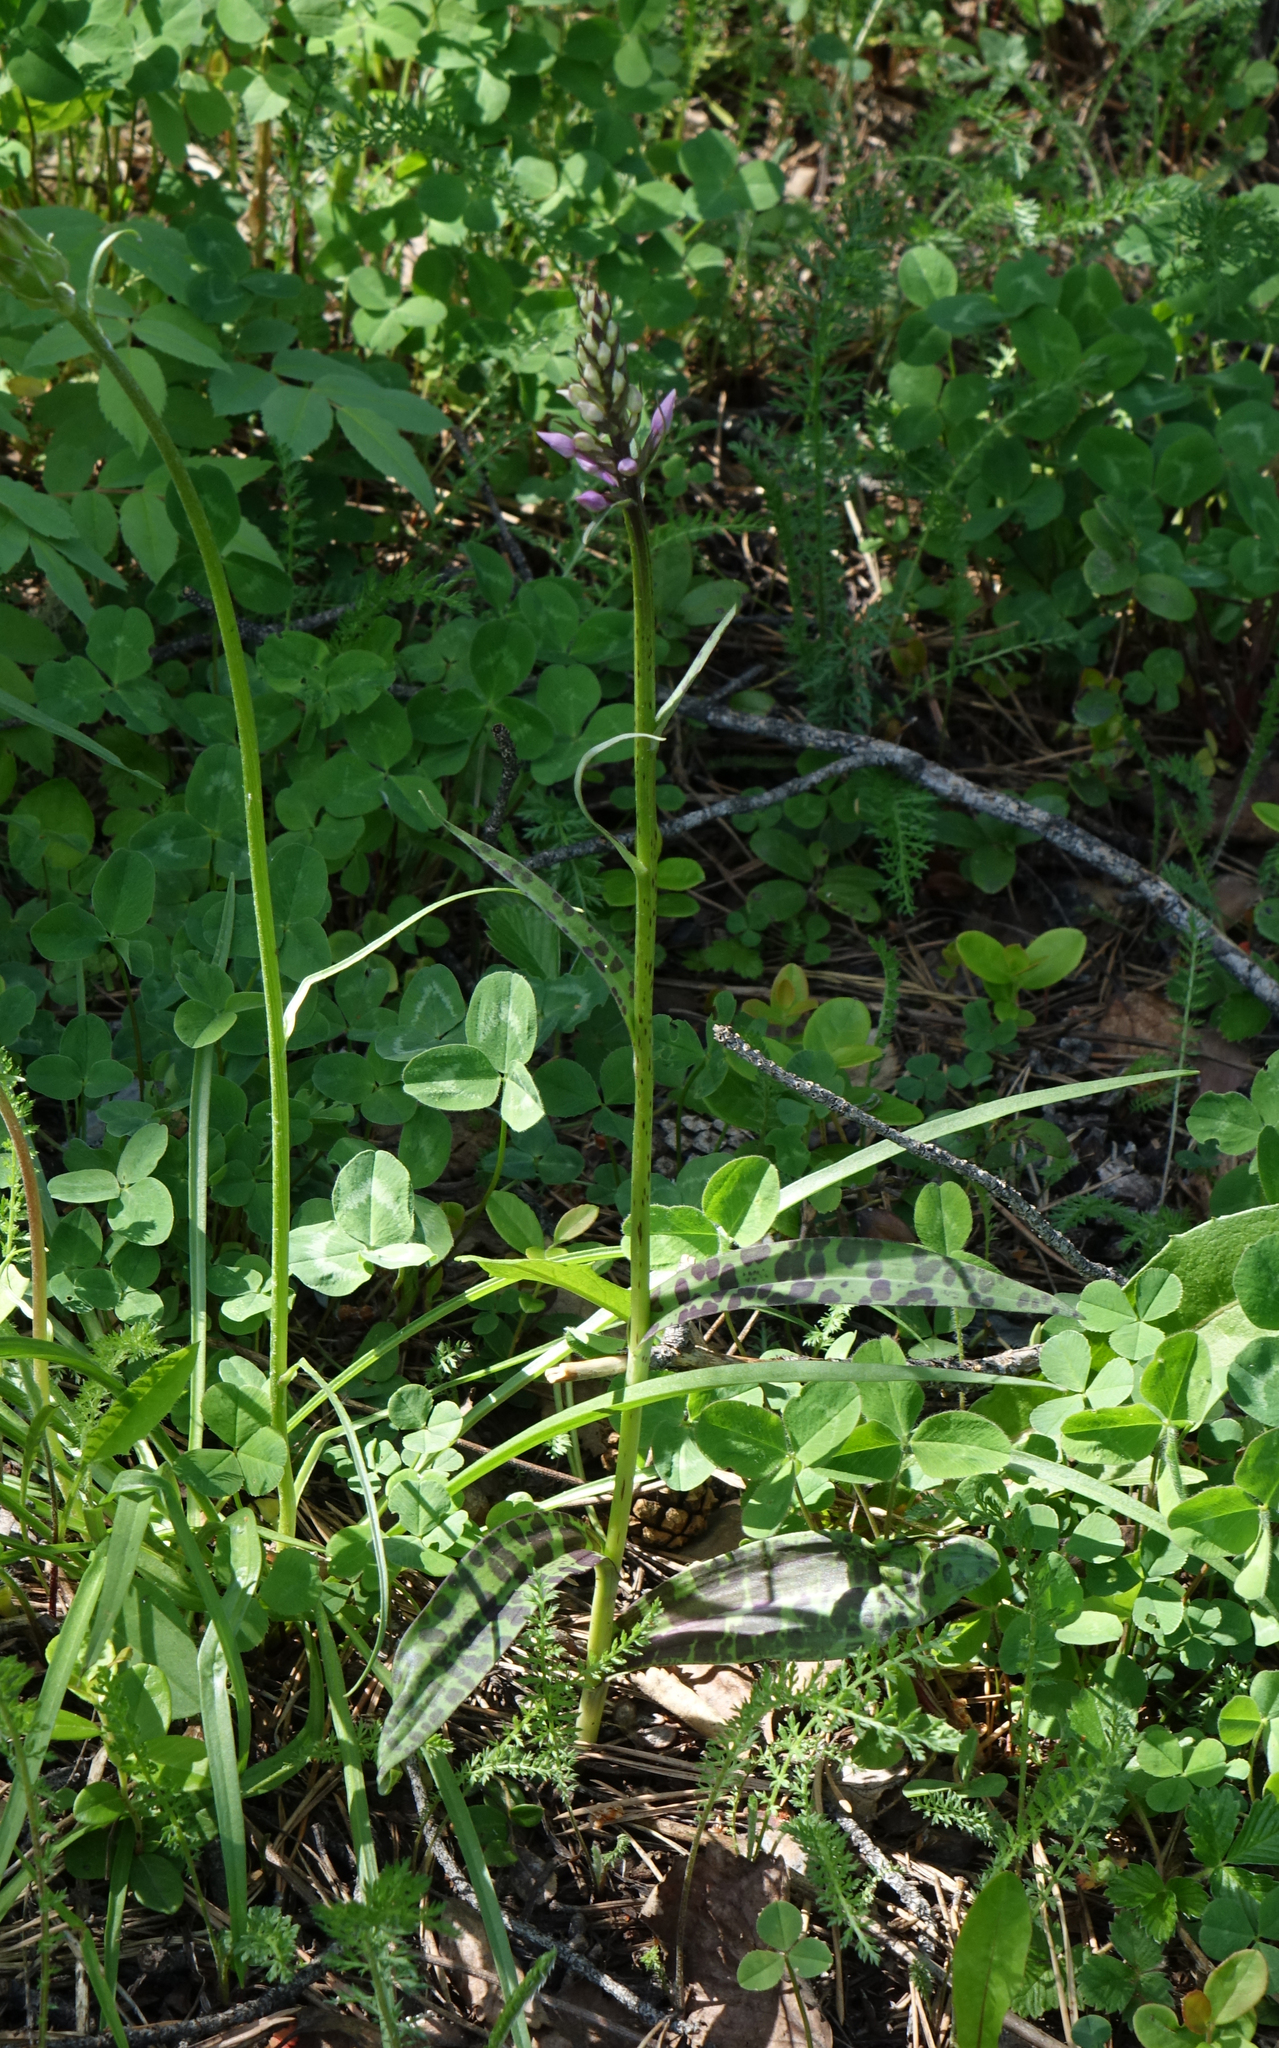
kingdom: Plantae
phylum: Tracheophyta
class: Liliopsida
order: Asparagales
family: Orchidaceae
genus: Dactylorhiza
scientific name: Dactylorhiza maculata
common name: Heath spotted-orchid
